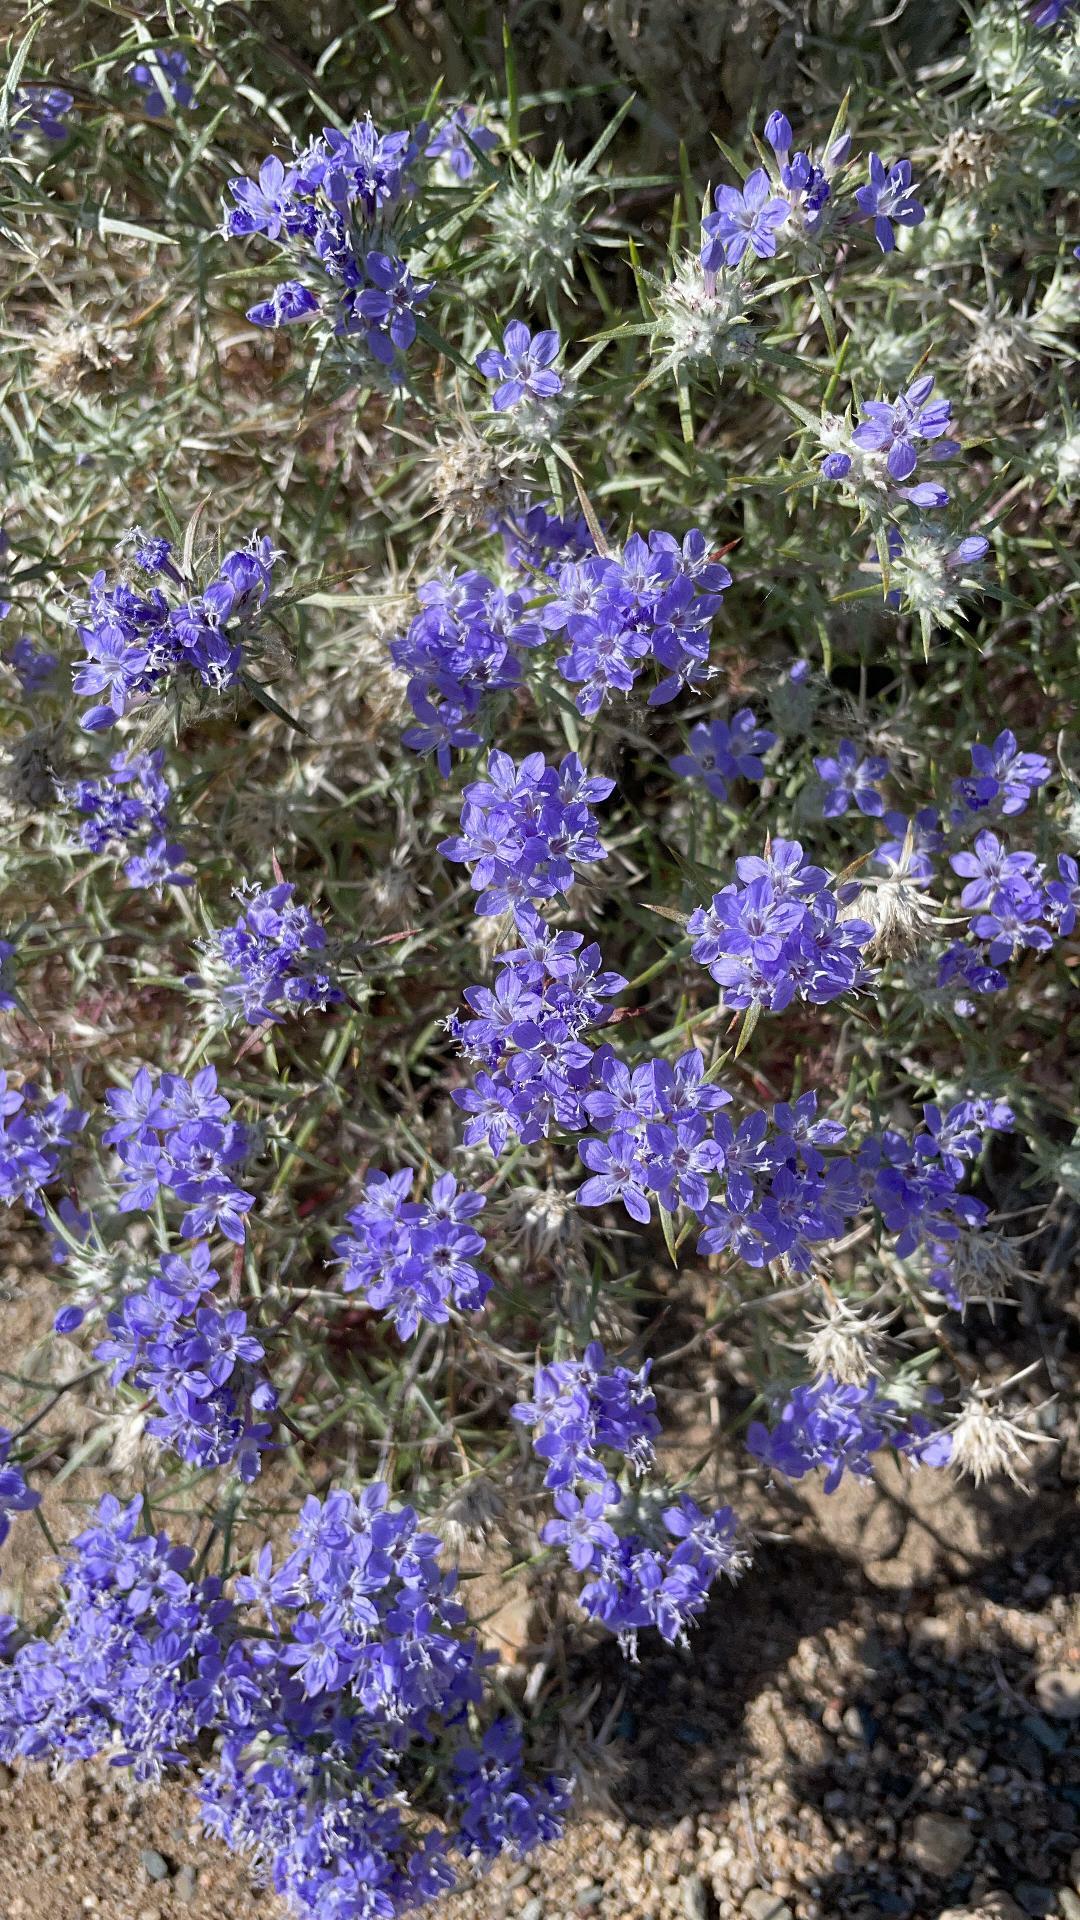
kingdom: Plantae
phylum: Tracheophyta
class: Magnoliopsida
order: Ericales
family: Polemoniaceae
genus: Eriastrum
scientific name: Eriastrum densifolium
